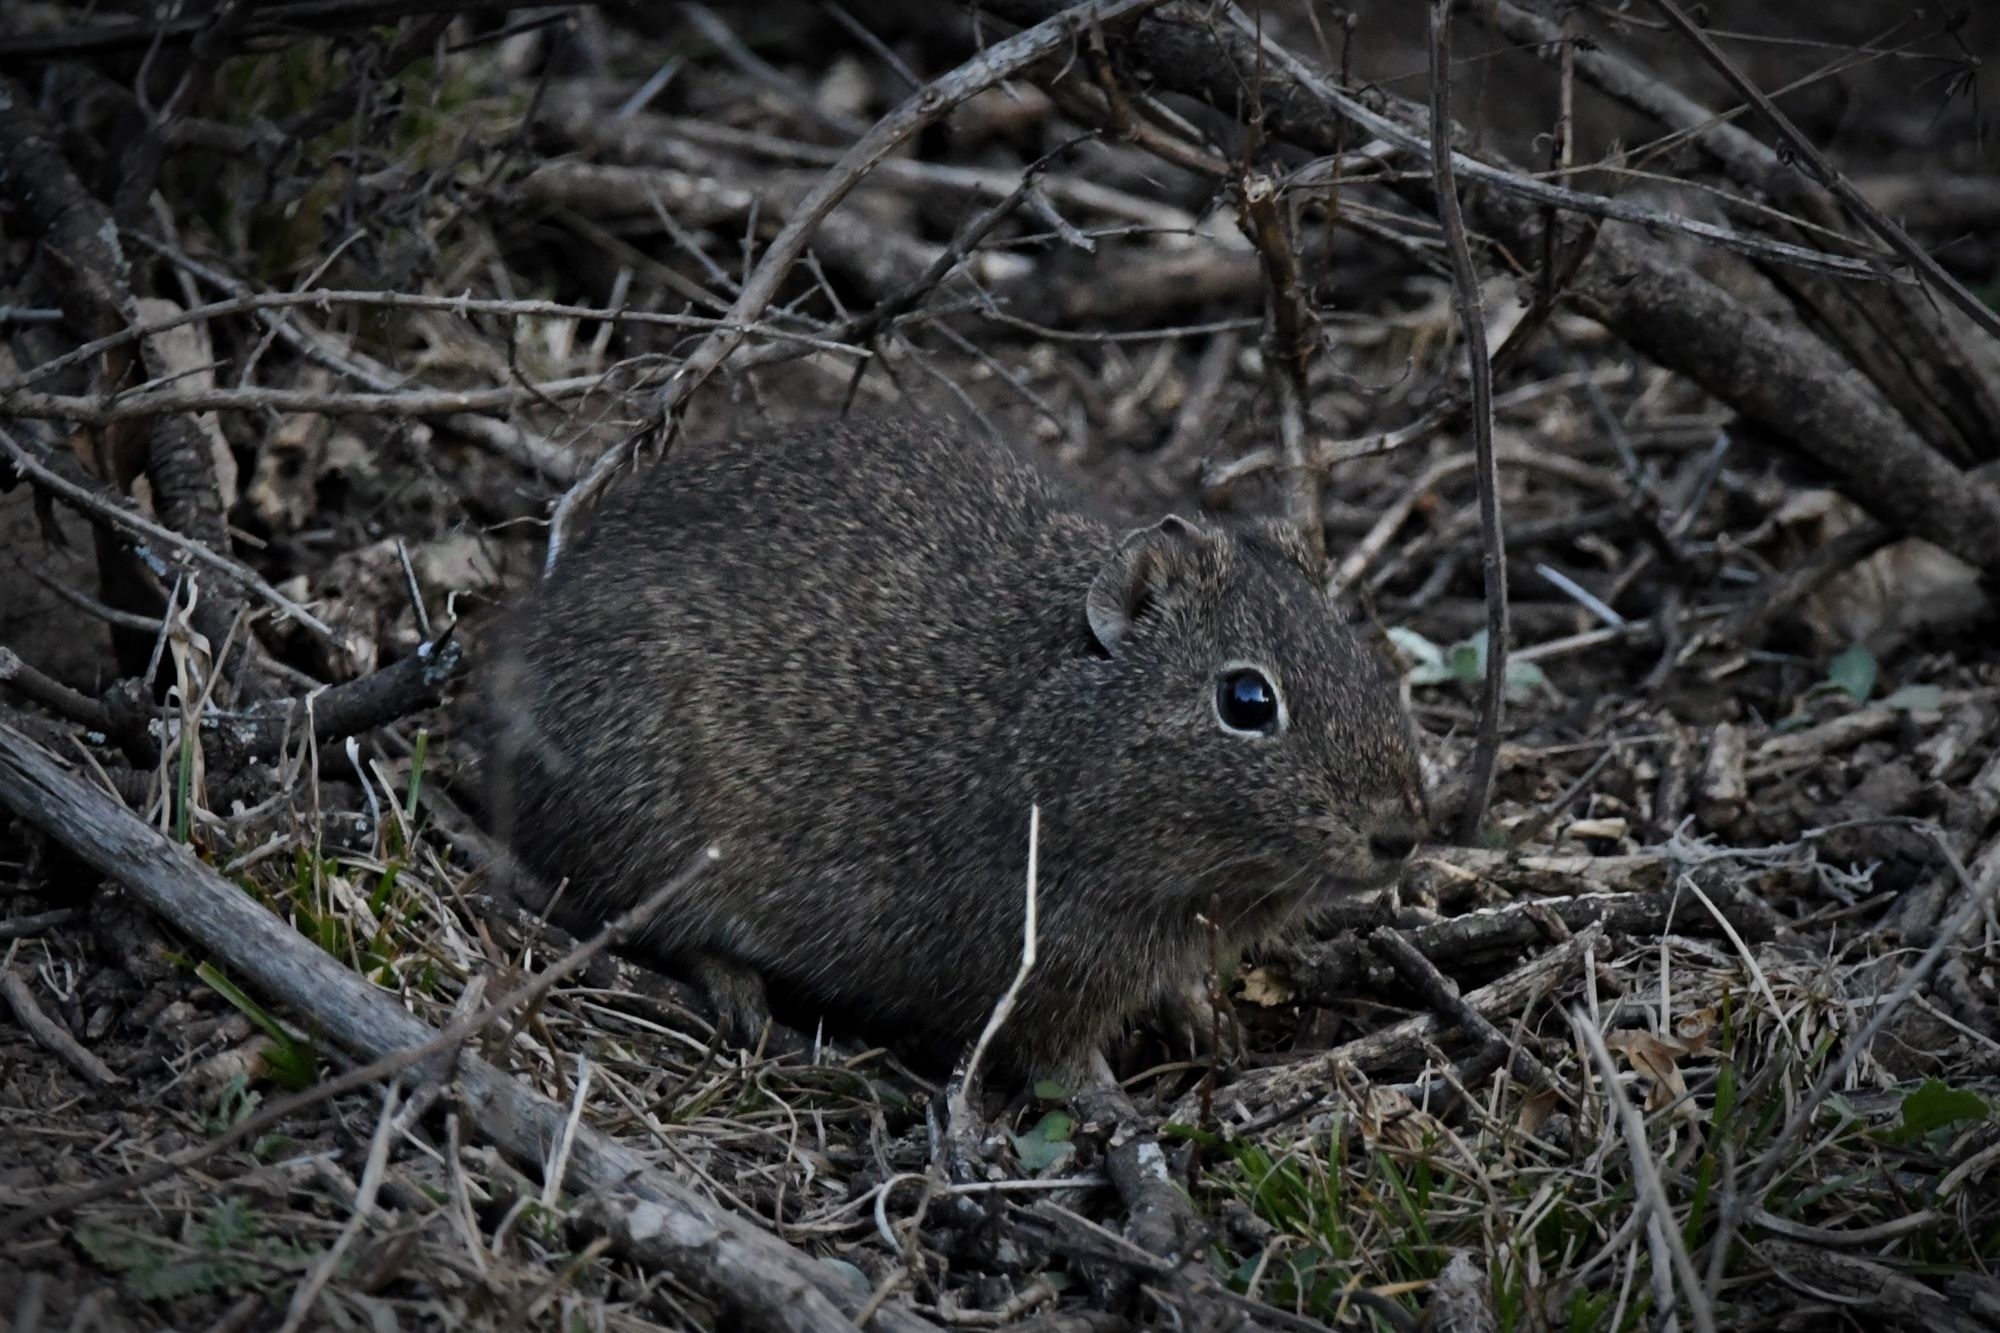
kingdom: Animalia
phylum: Chordata
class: Mammalia
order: Rodentia
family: Caviidae
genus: Galea
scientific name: Galea musteloides
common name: Common yellow-toothed cavy
